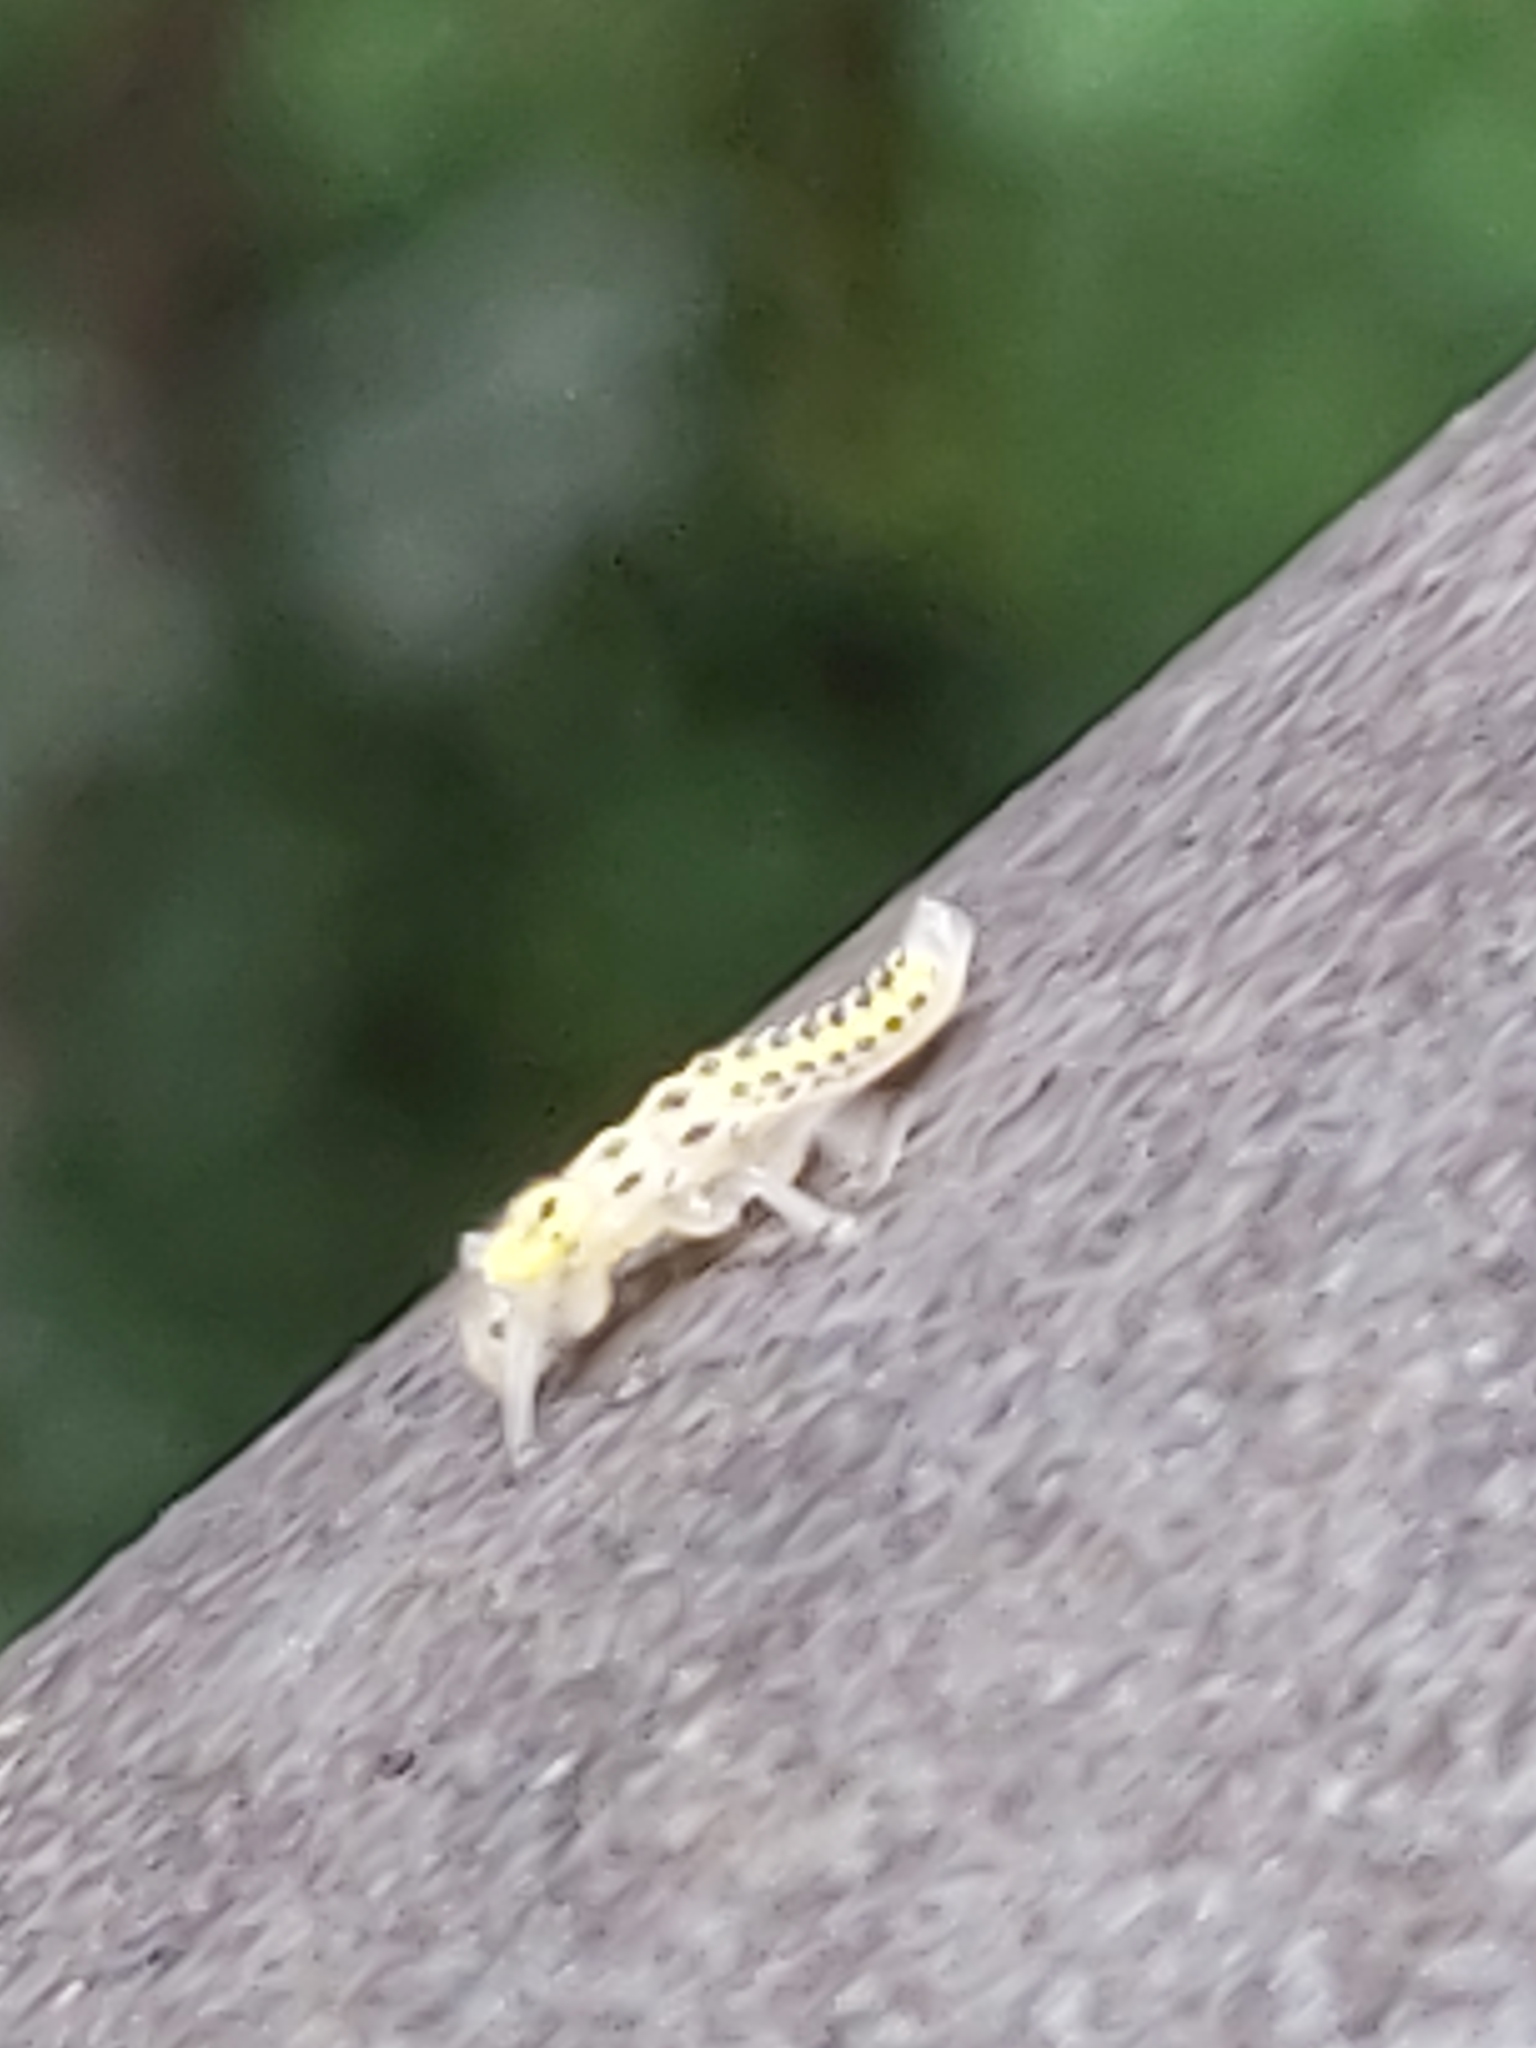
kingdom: Animalia
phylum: Arthropoda
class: Insecta
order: Coleoptera
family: Coccinellidae
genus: Halyzia
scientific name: Halyzia sedecimguttata
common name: Orange ladybird
